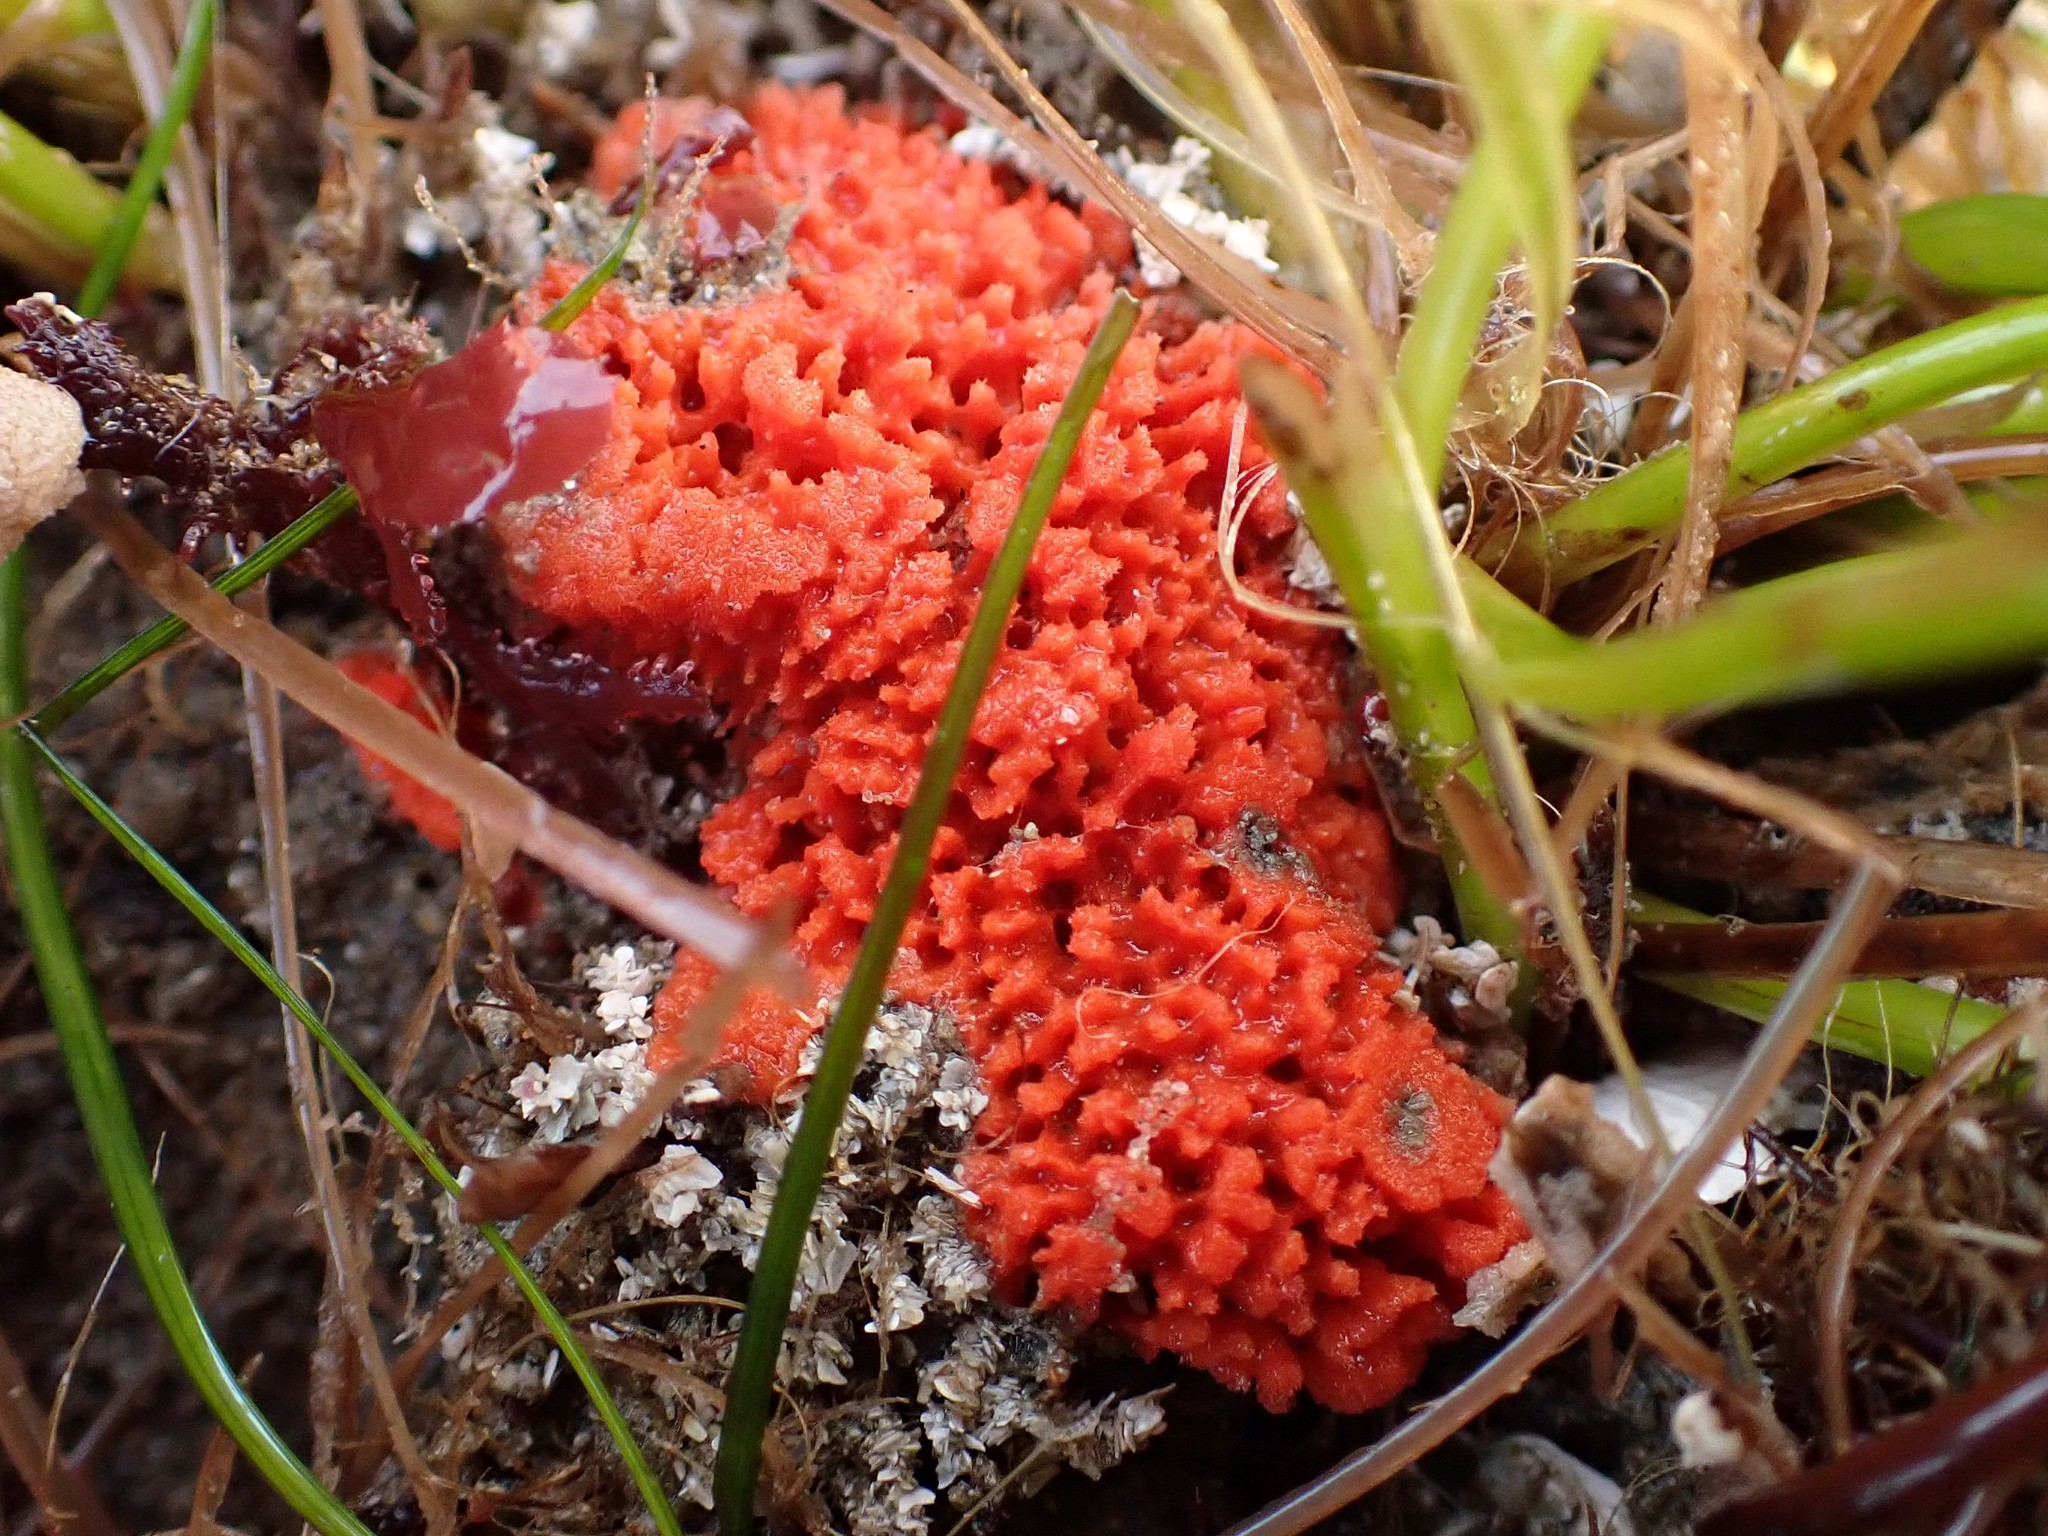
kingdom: Animalia
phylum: Porifera
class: Demospongiae
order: Axinellida
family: Raspailiidae
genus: Endectyon
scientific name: Endectyon hispitumulus
